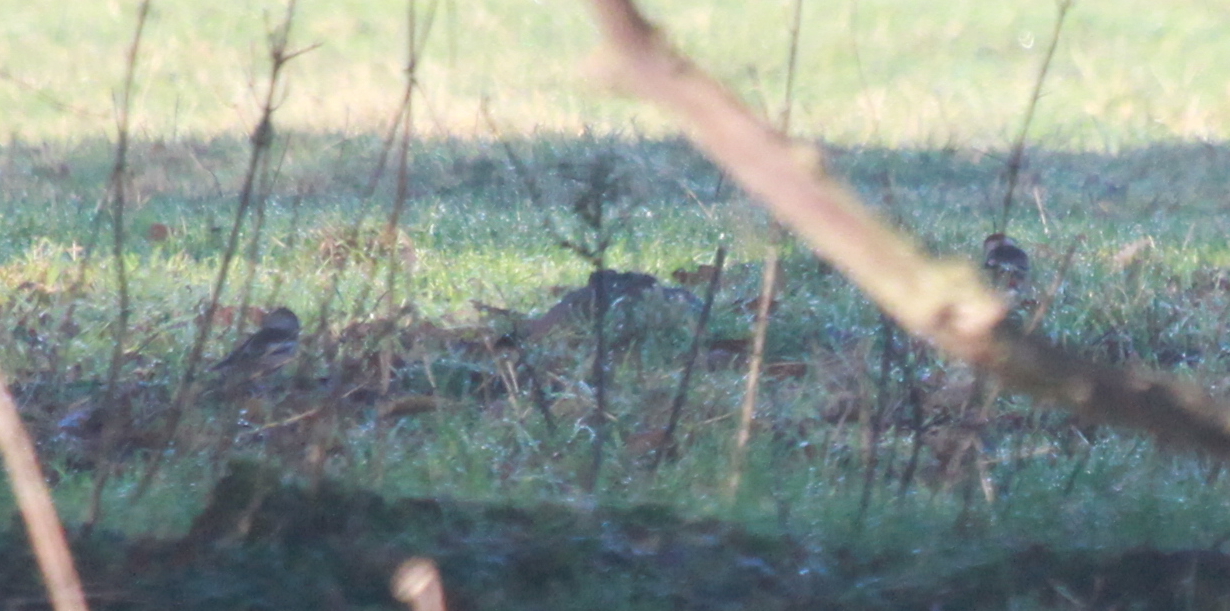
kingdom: Animalia
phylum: Chordata
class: Aves
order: Passeriformes
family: Fringillidae
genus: Coccothraustes
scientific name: Coccothraustes coccothraustes
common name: Hawfinch
